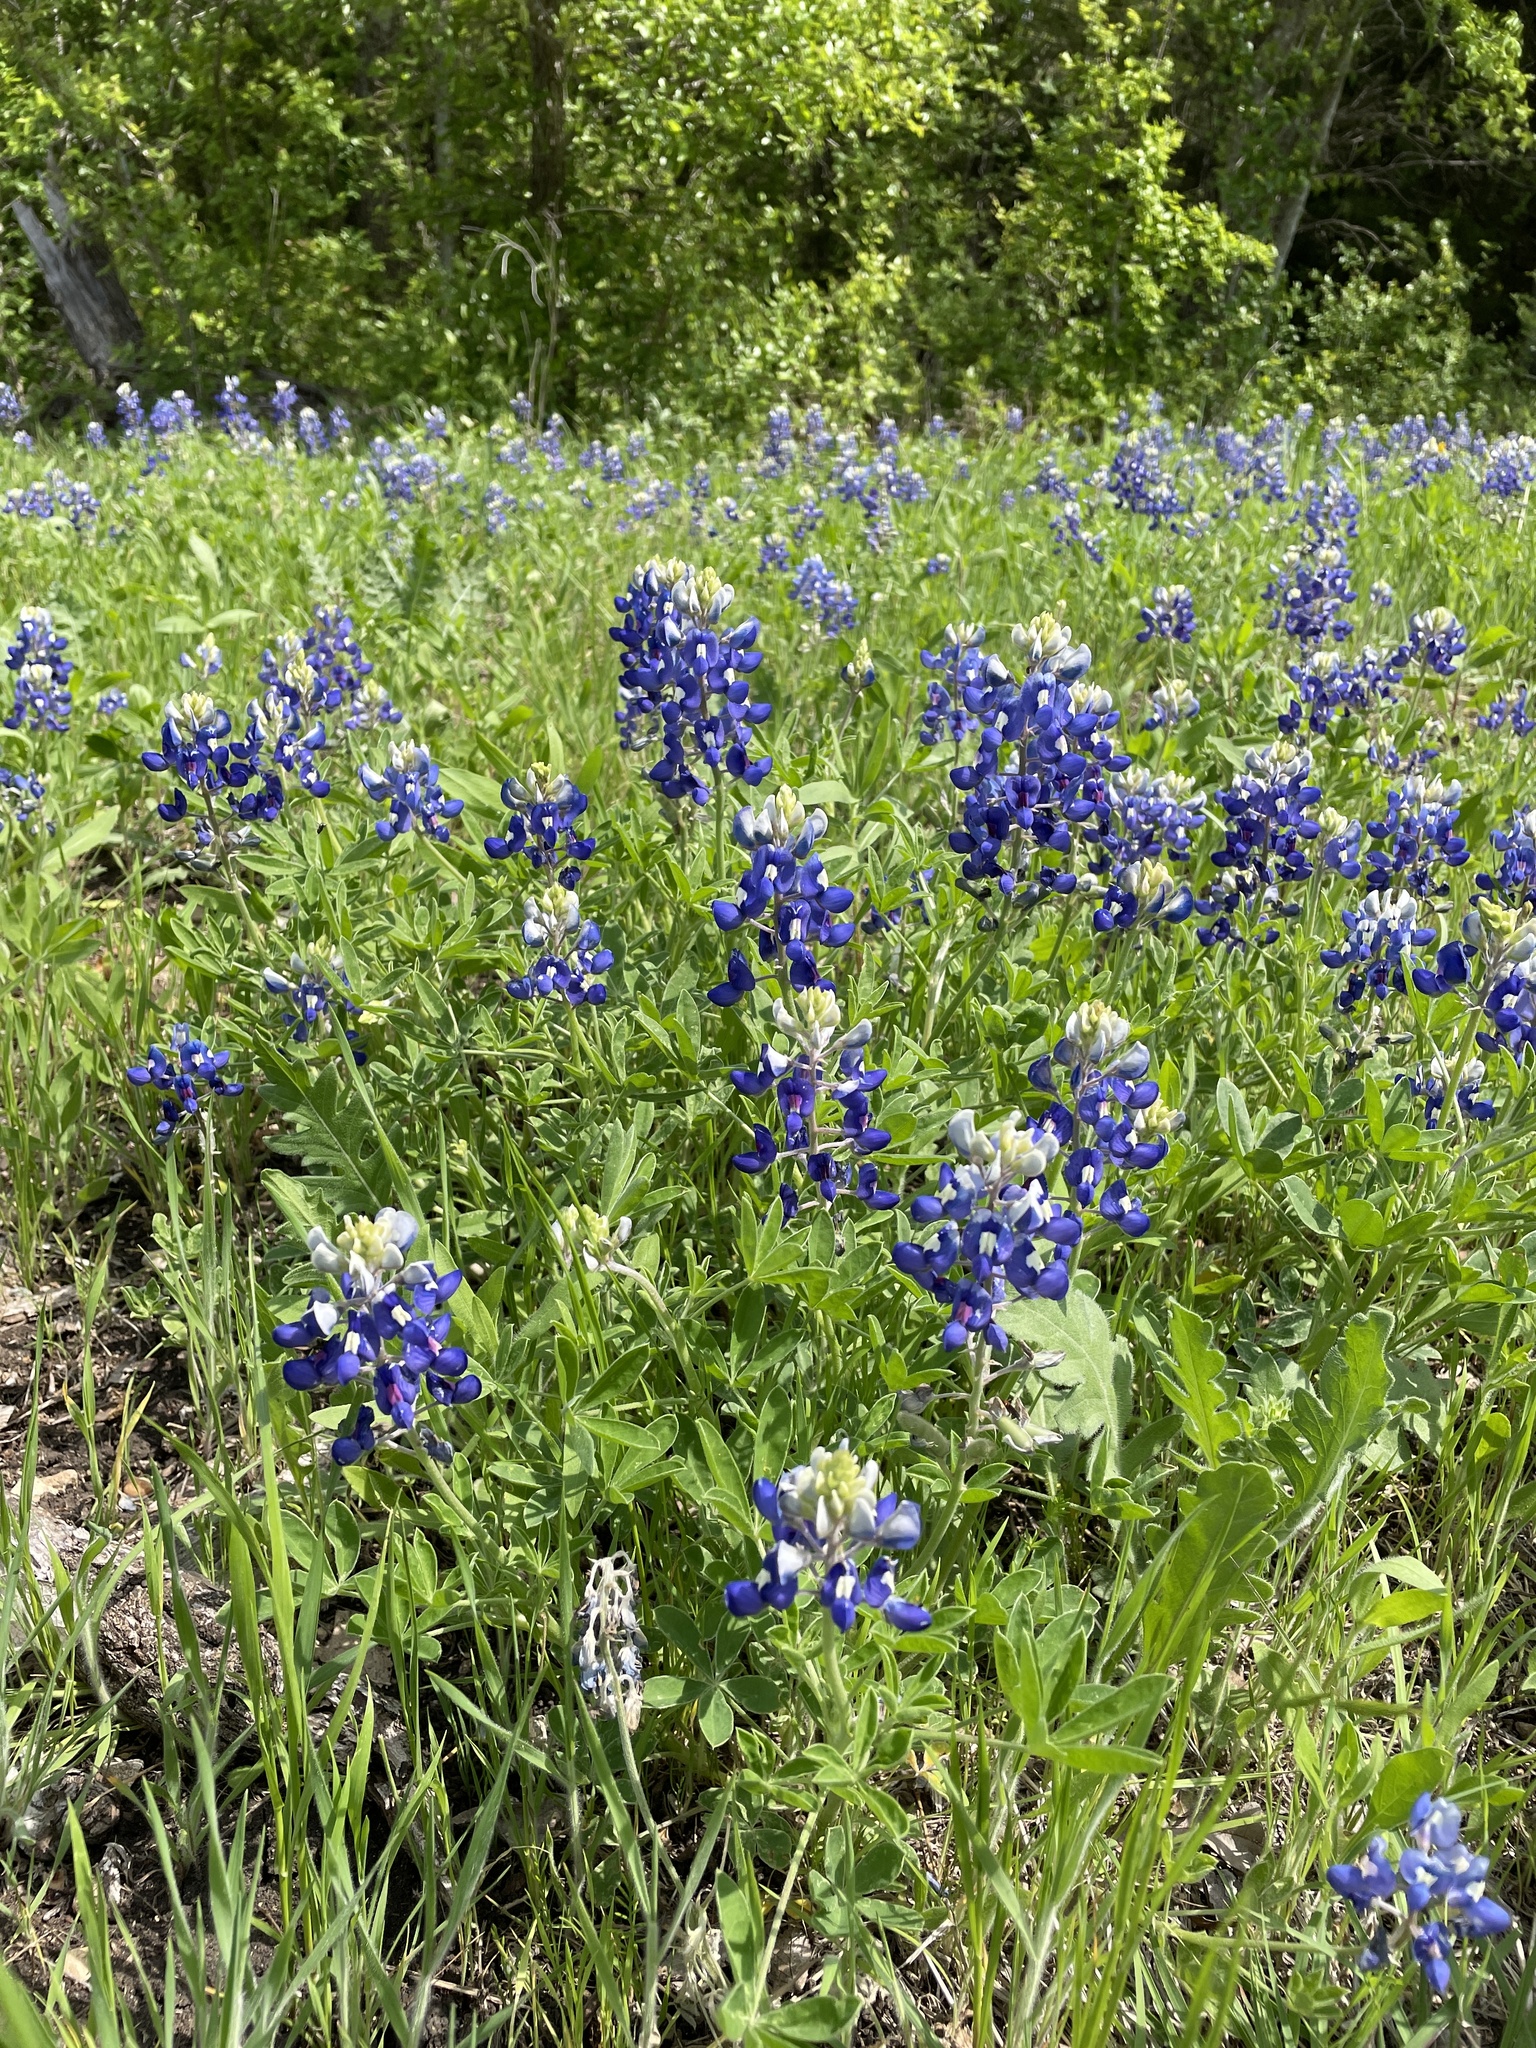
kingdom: Plantae
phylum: Tracheophyta
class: Magnoliopsida
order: Fabales
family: Fabaceae
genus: Lupinus
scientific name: Lupinus texensis
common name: Texas bluebonnet
